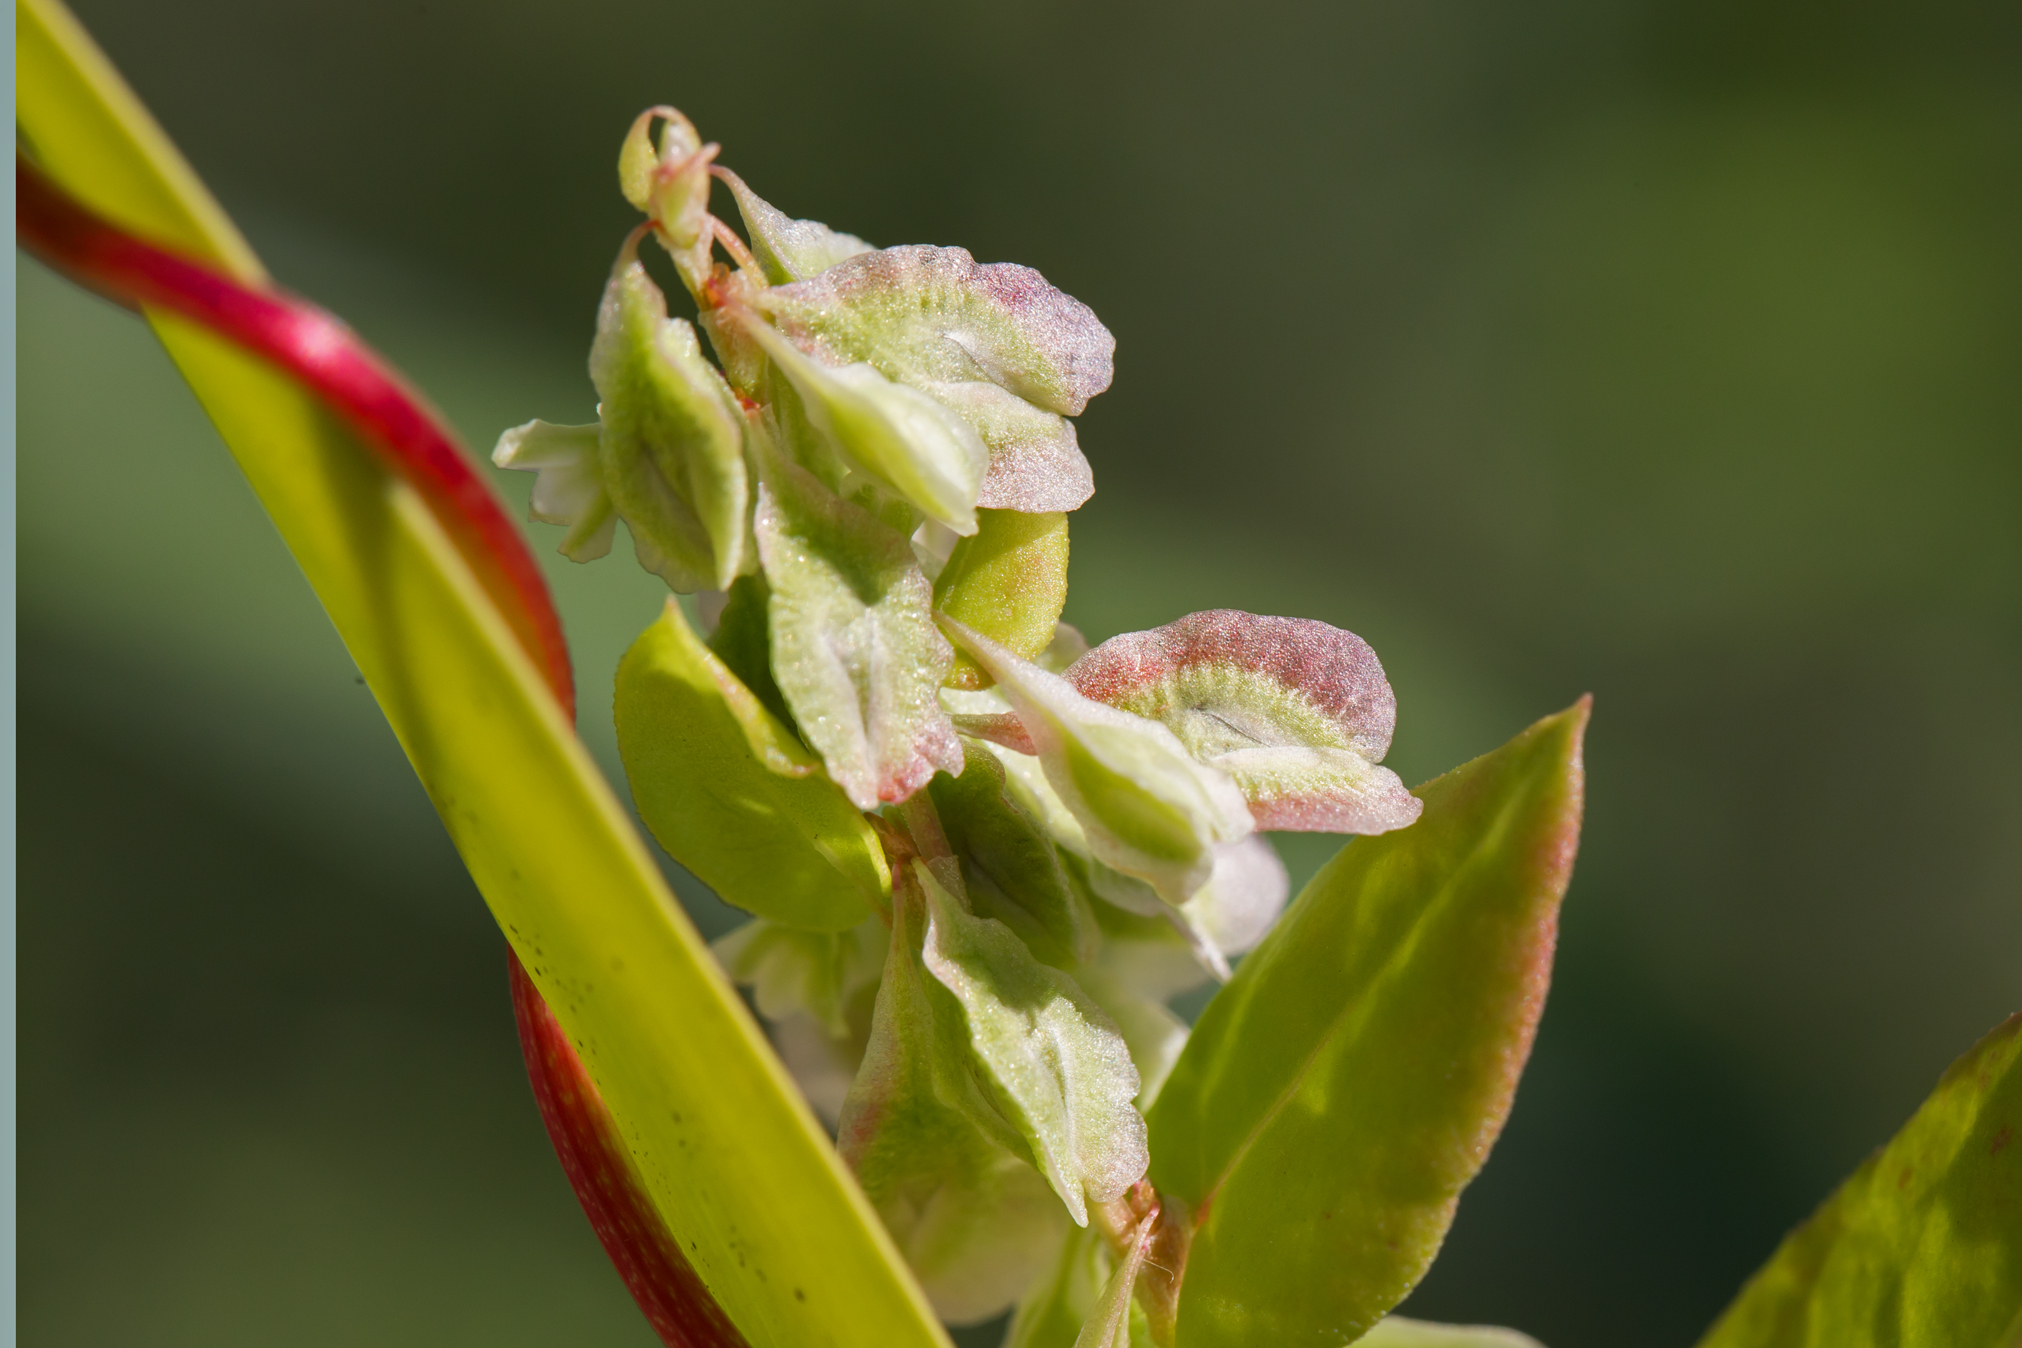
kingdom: Plantae
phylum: Tracheophyta
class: Magnoliopsida
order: Caryophyllales
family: Polygonaceae
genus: Fallopia
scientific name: Fallopia scandens
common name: Climbing false buckwheat
